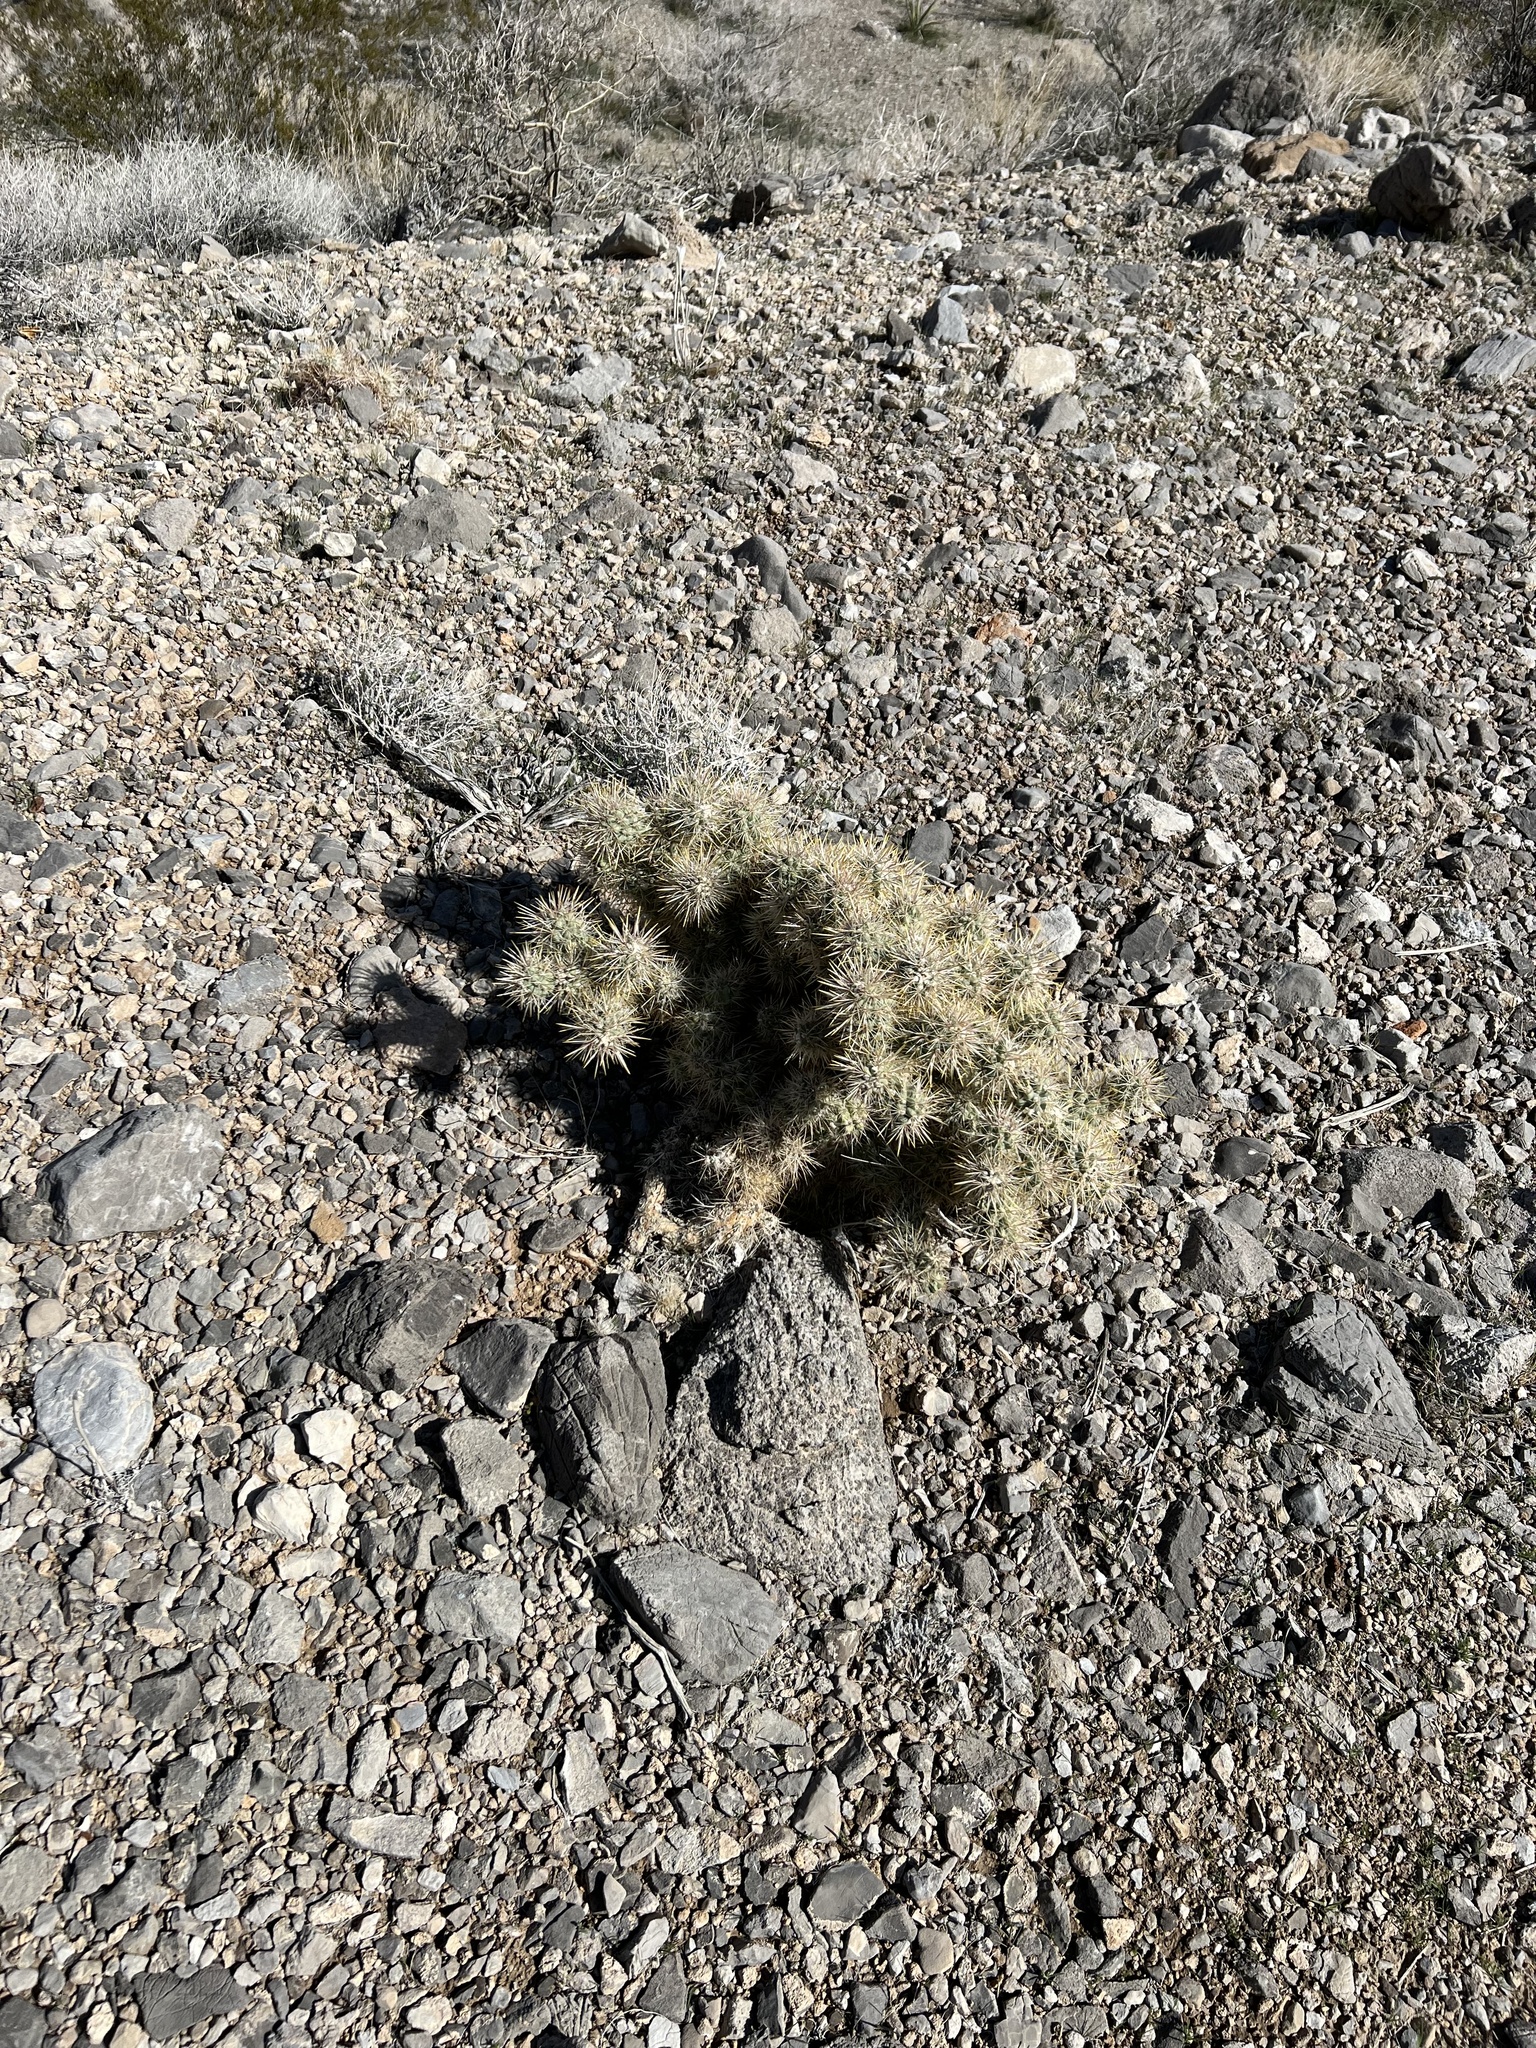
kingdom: Plantae
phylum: Tracheophyta
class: Magnoliopsida
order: Caryophyllales
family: Cactaceae
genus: Cylindropuntia
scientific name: Cylindropuntia echinocarpa
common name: Ground cholla
